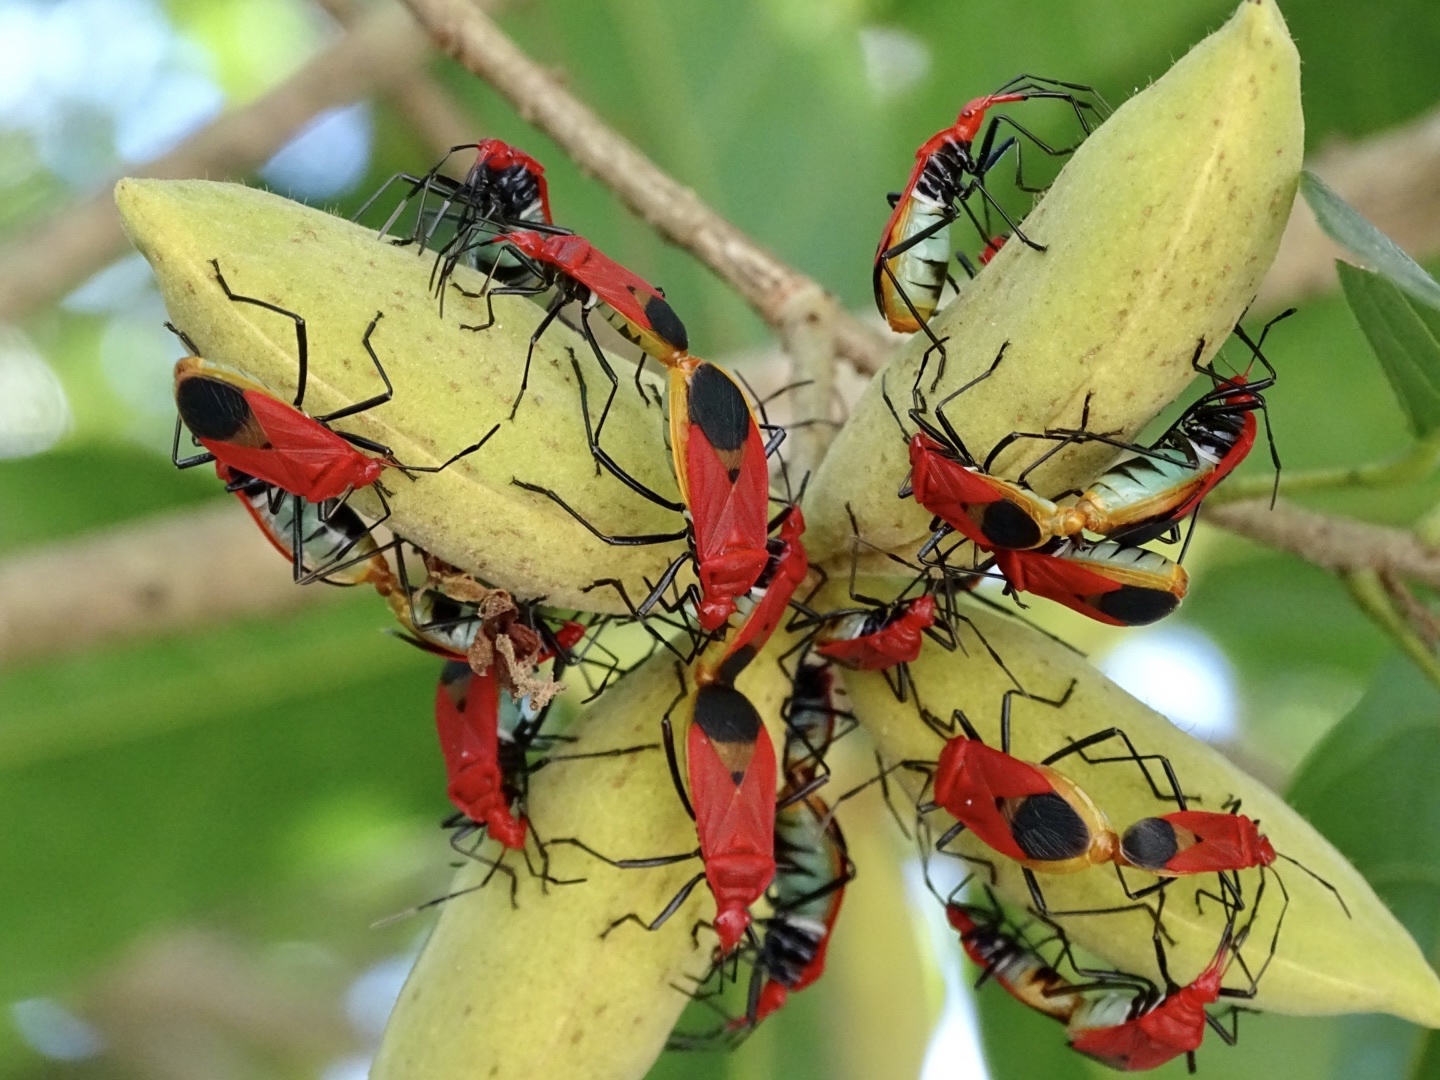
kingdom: Animalia
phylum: Arthropoda
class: Insecta
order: Hemiptera
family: Pyrrhocoridae
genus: Dindymus
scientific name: Dindymus
